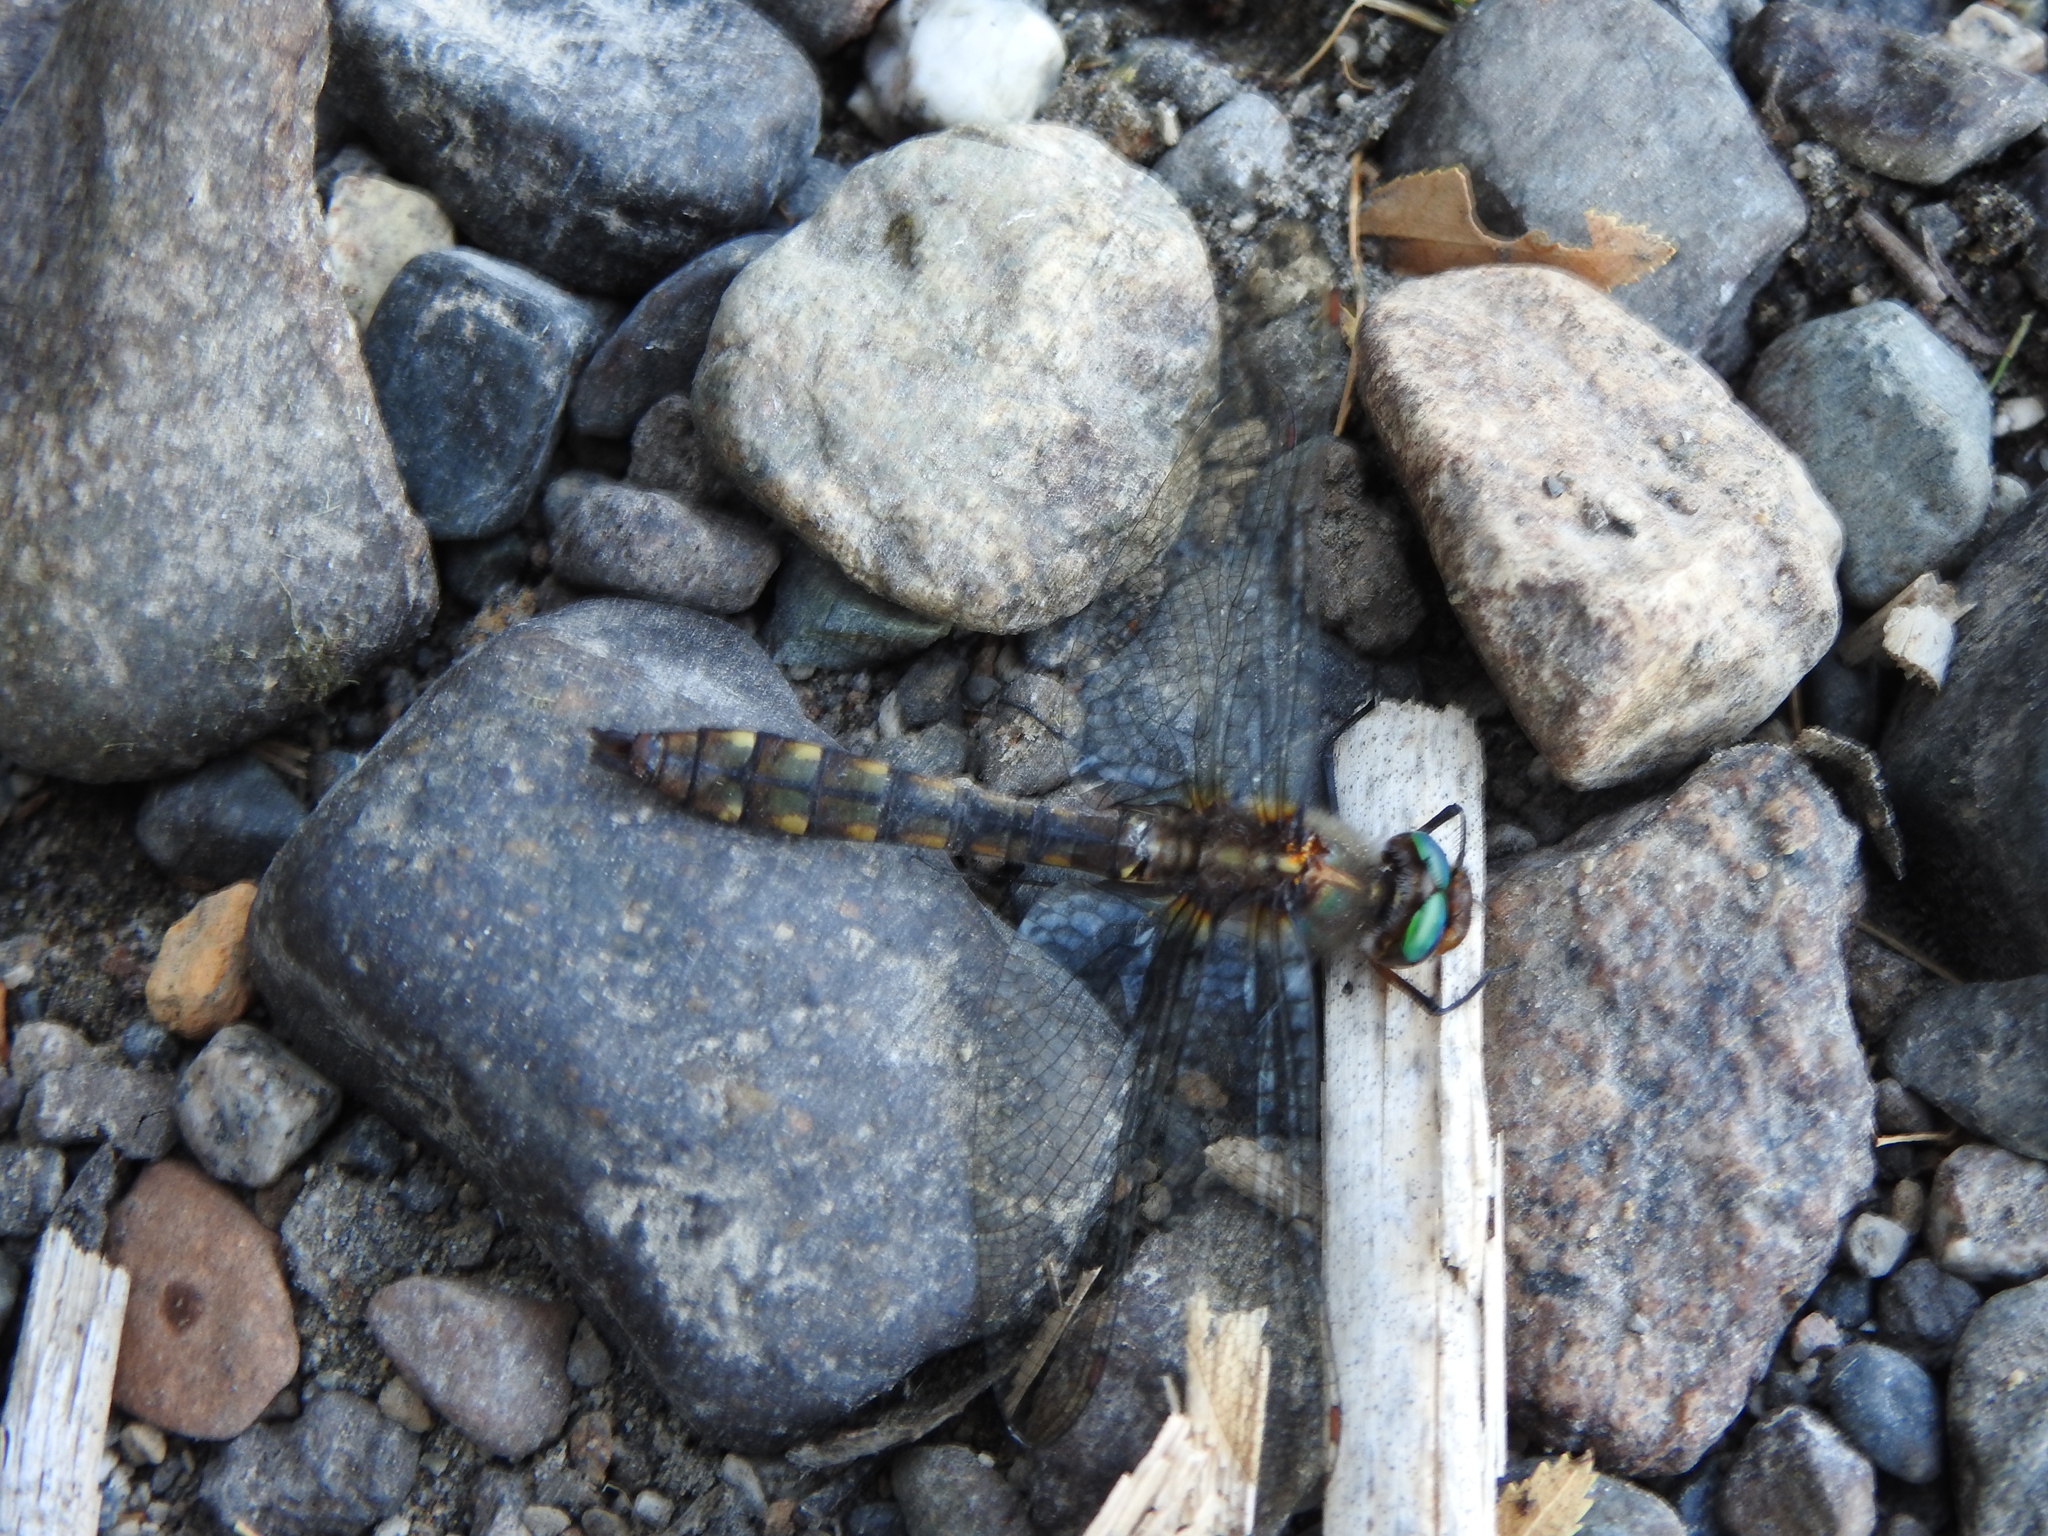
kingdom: Animalia
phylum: Arthropoda
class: Insecta
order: Odonata
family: Corduliidae
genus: Rialla
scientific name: Rialla villosa
